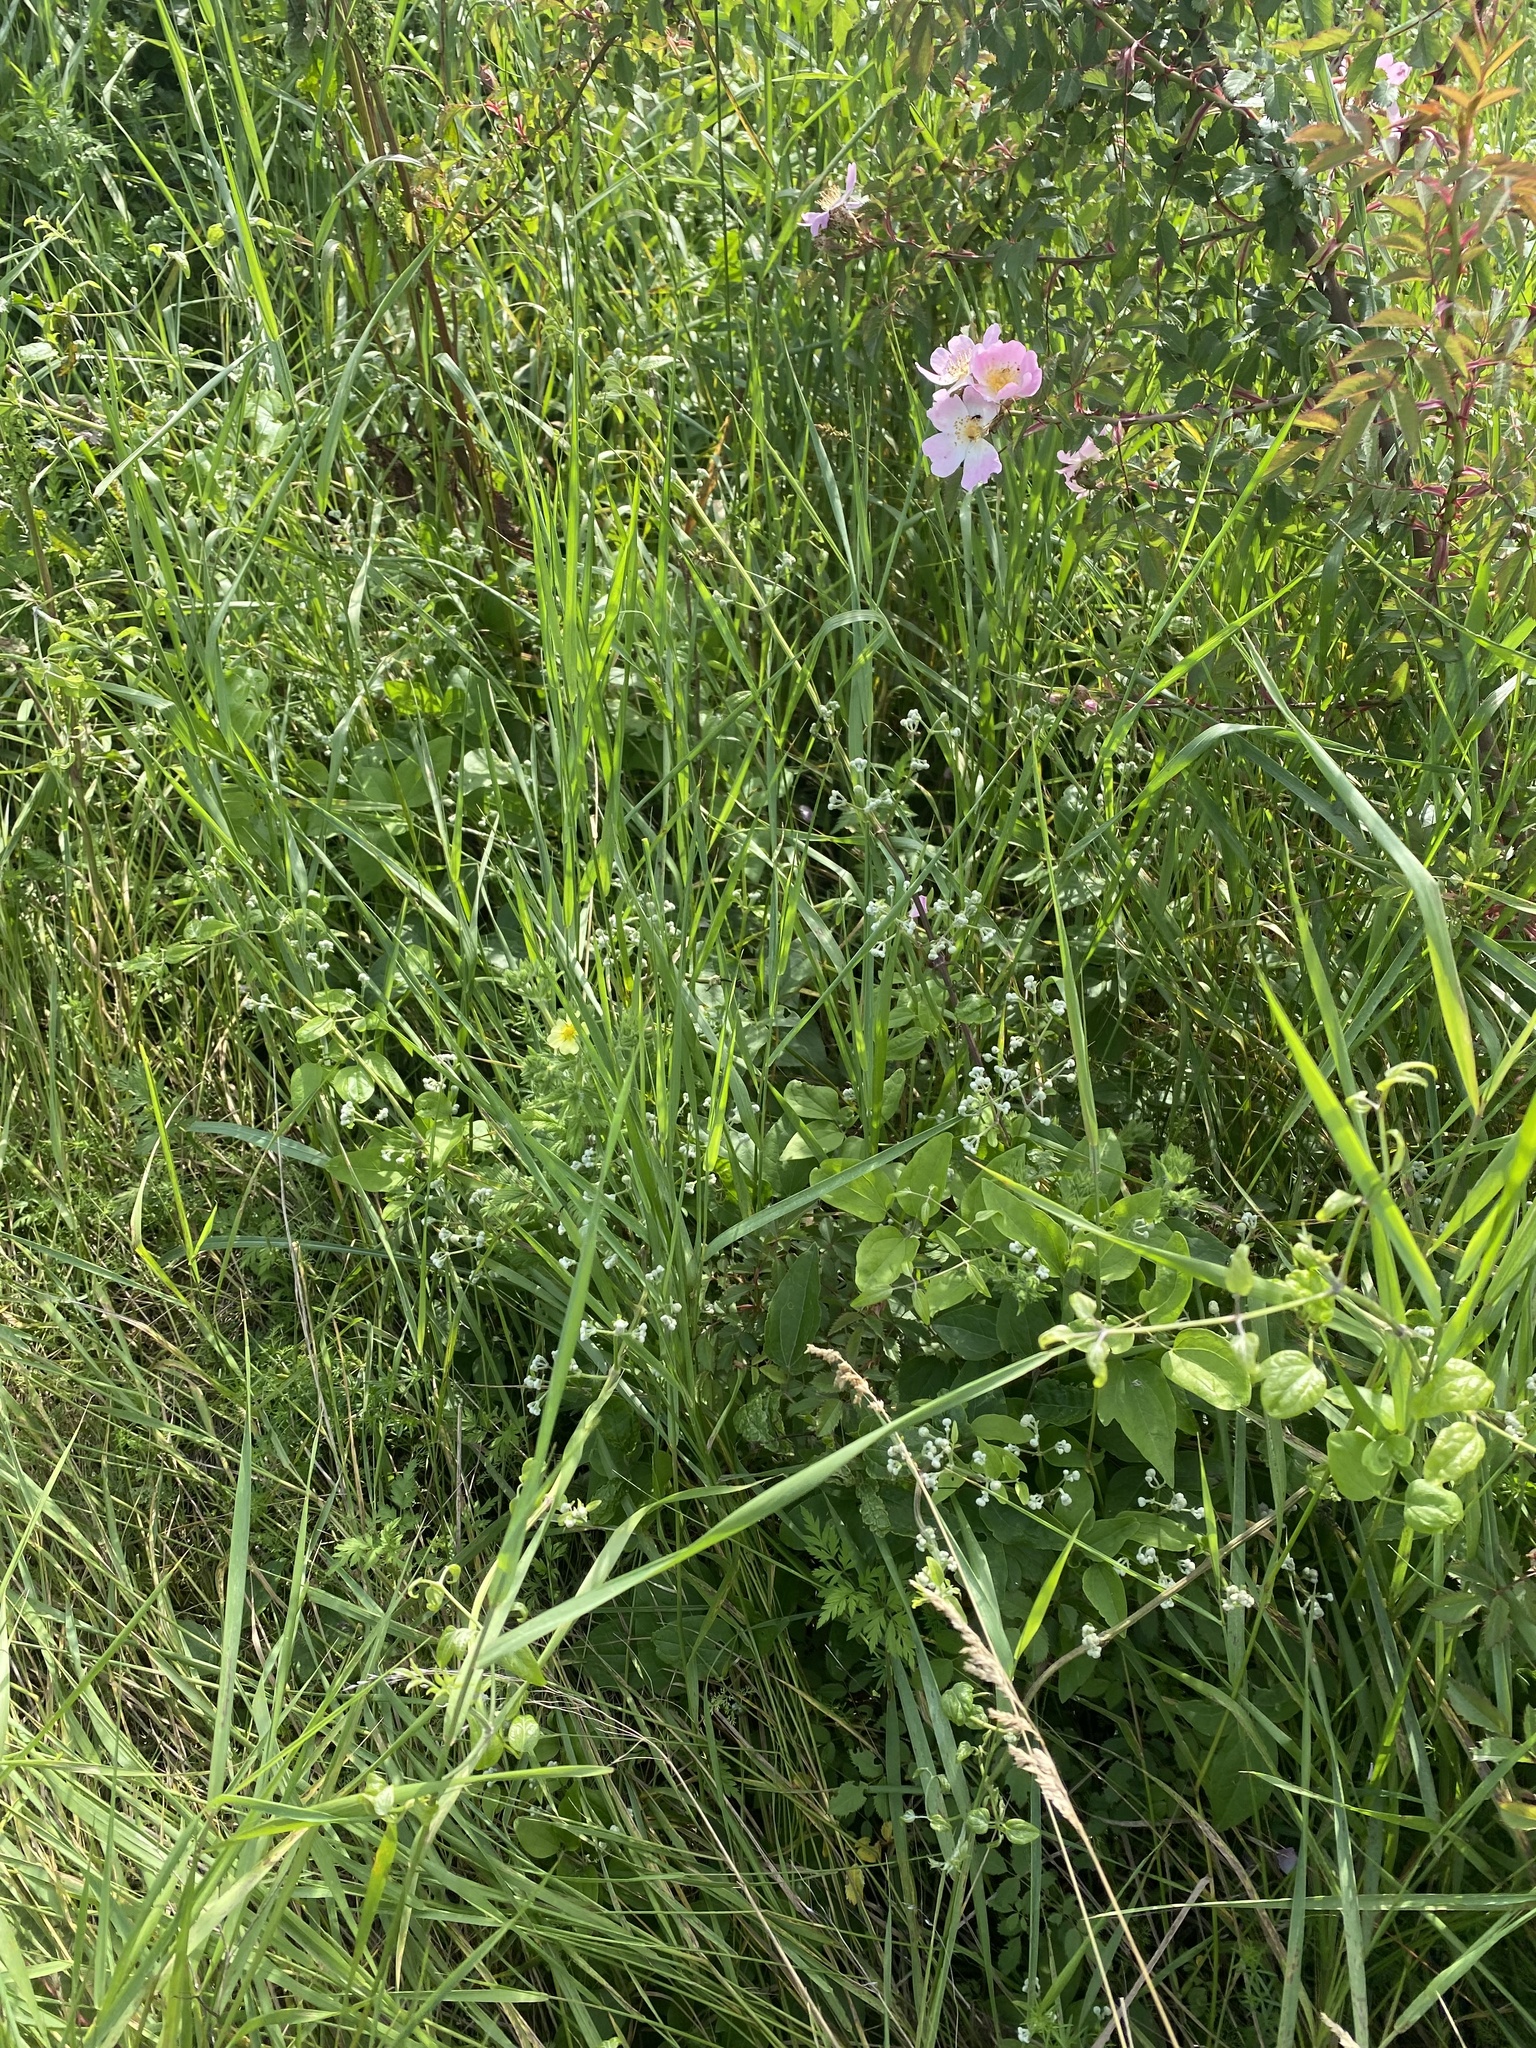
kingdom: Plantae
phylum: Tracheophyta
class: Magnoliopsida
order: Ranunculales
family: Ranunculaceae
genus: Clematis
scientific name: Clematis vitalba
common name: Evergreen clematis
